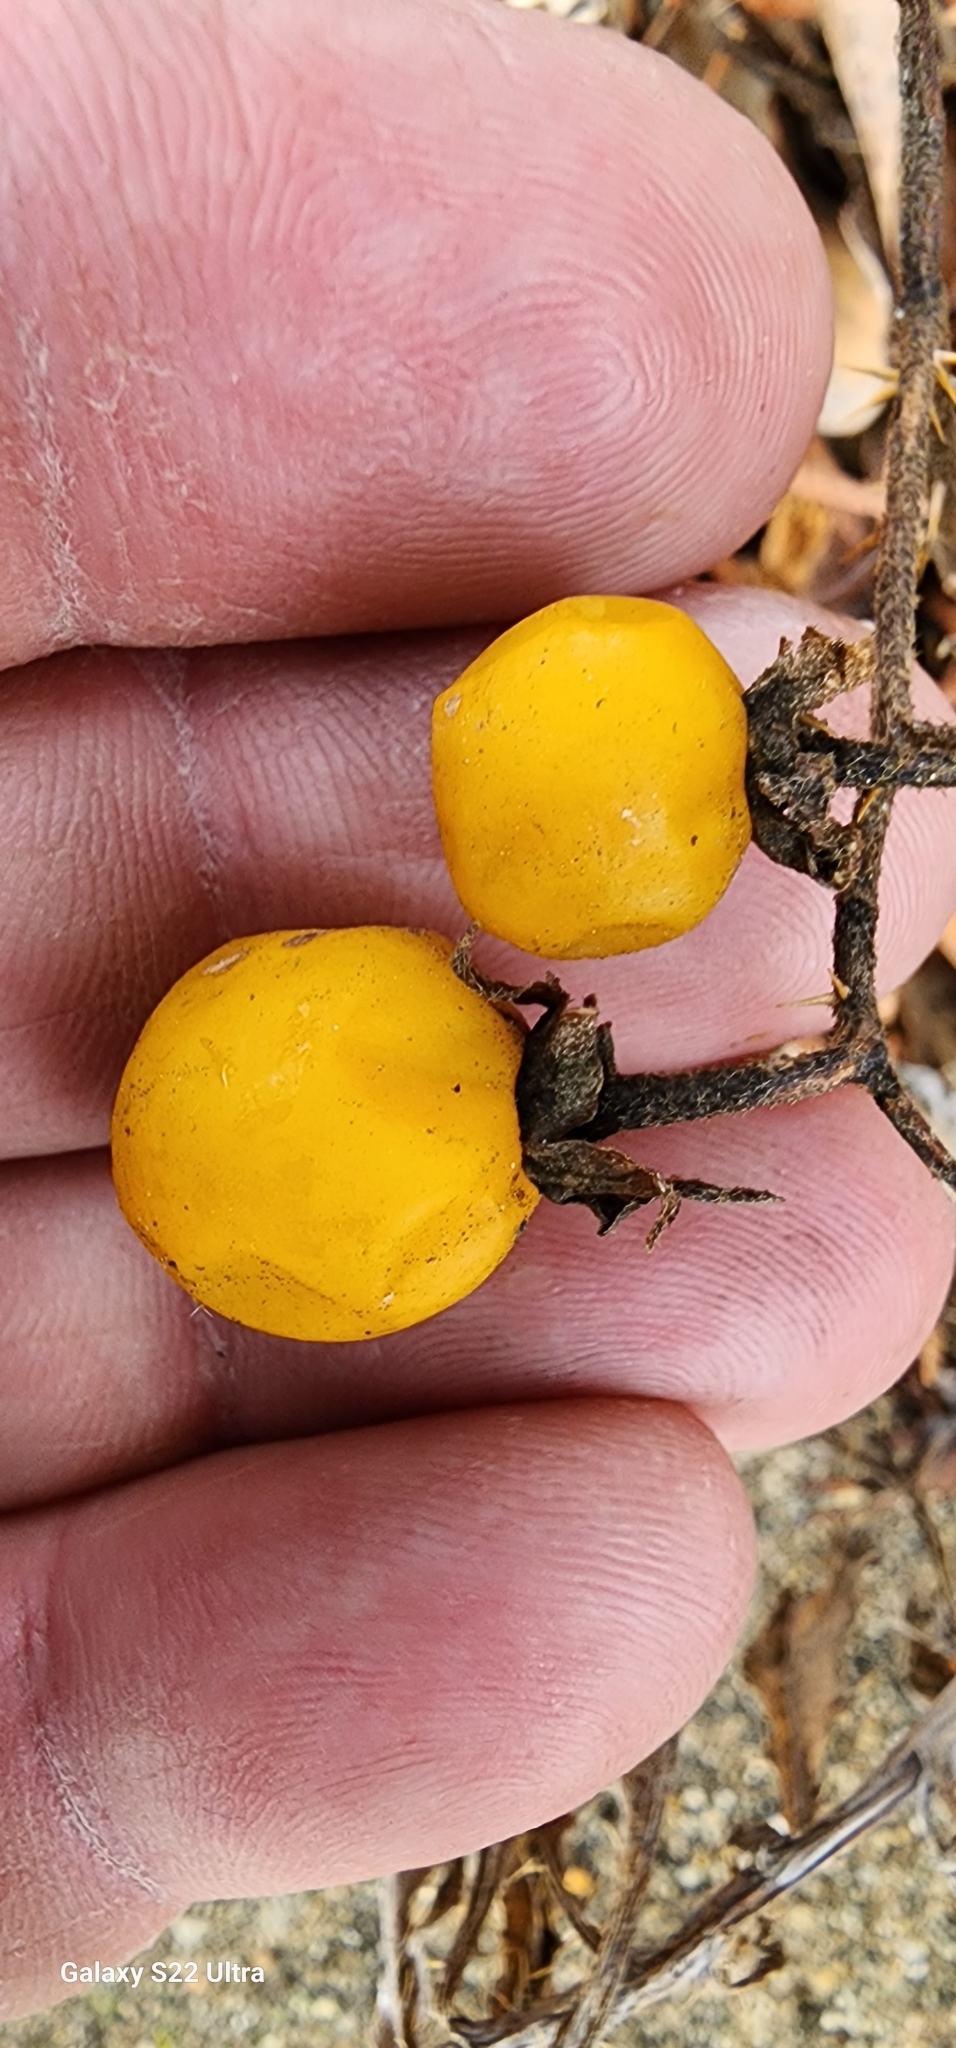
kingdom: Plantae
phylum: Tracheophyta
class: Magnoliopsida
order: Solanales
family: Solanaceae
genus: Solanum
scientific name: Solanum carolinense
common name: Horse-nettle
